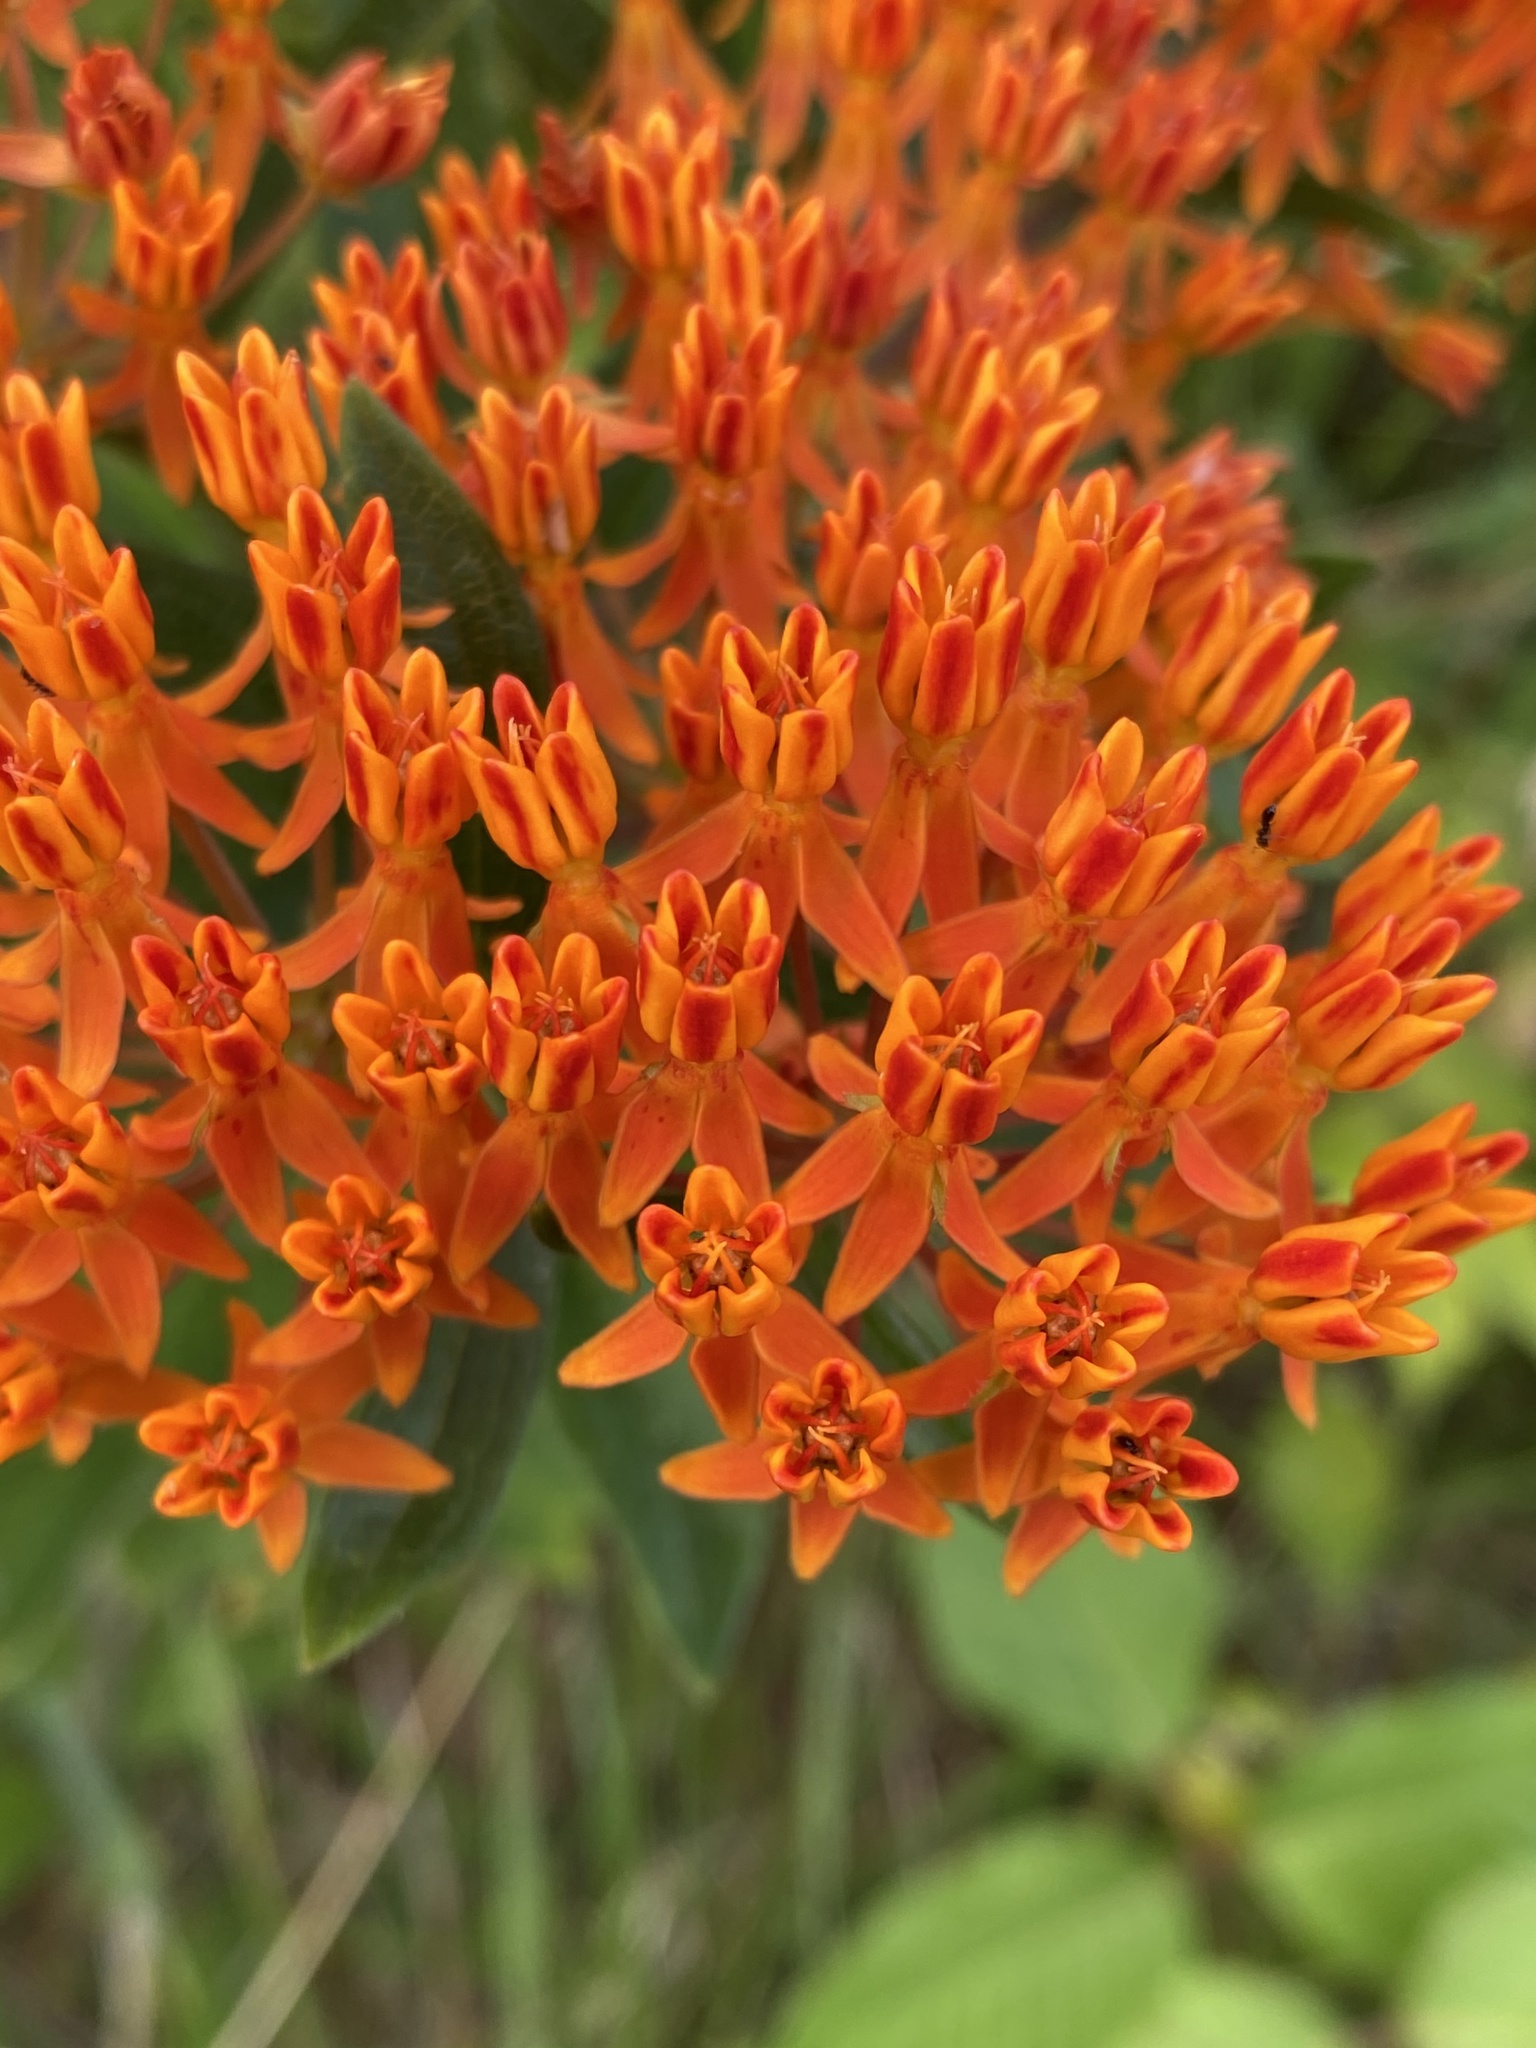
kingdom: Plantae
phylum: Tracheophyta
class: Magnoliopsida
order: Gentianales
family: Apocynaceae
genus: Asclepias
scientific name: Asclepias tuberosa
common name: Butterfly milkweed
